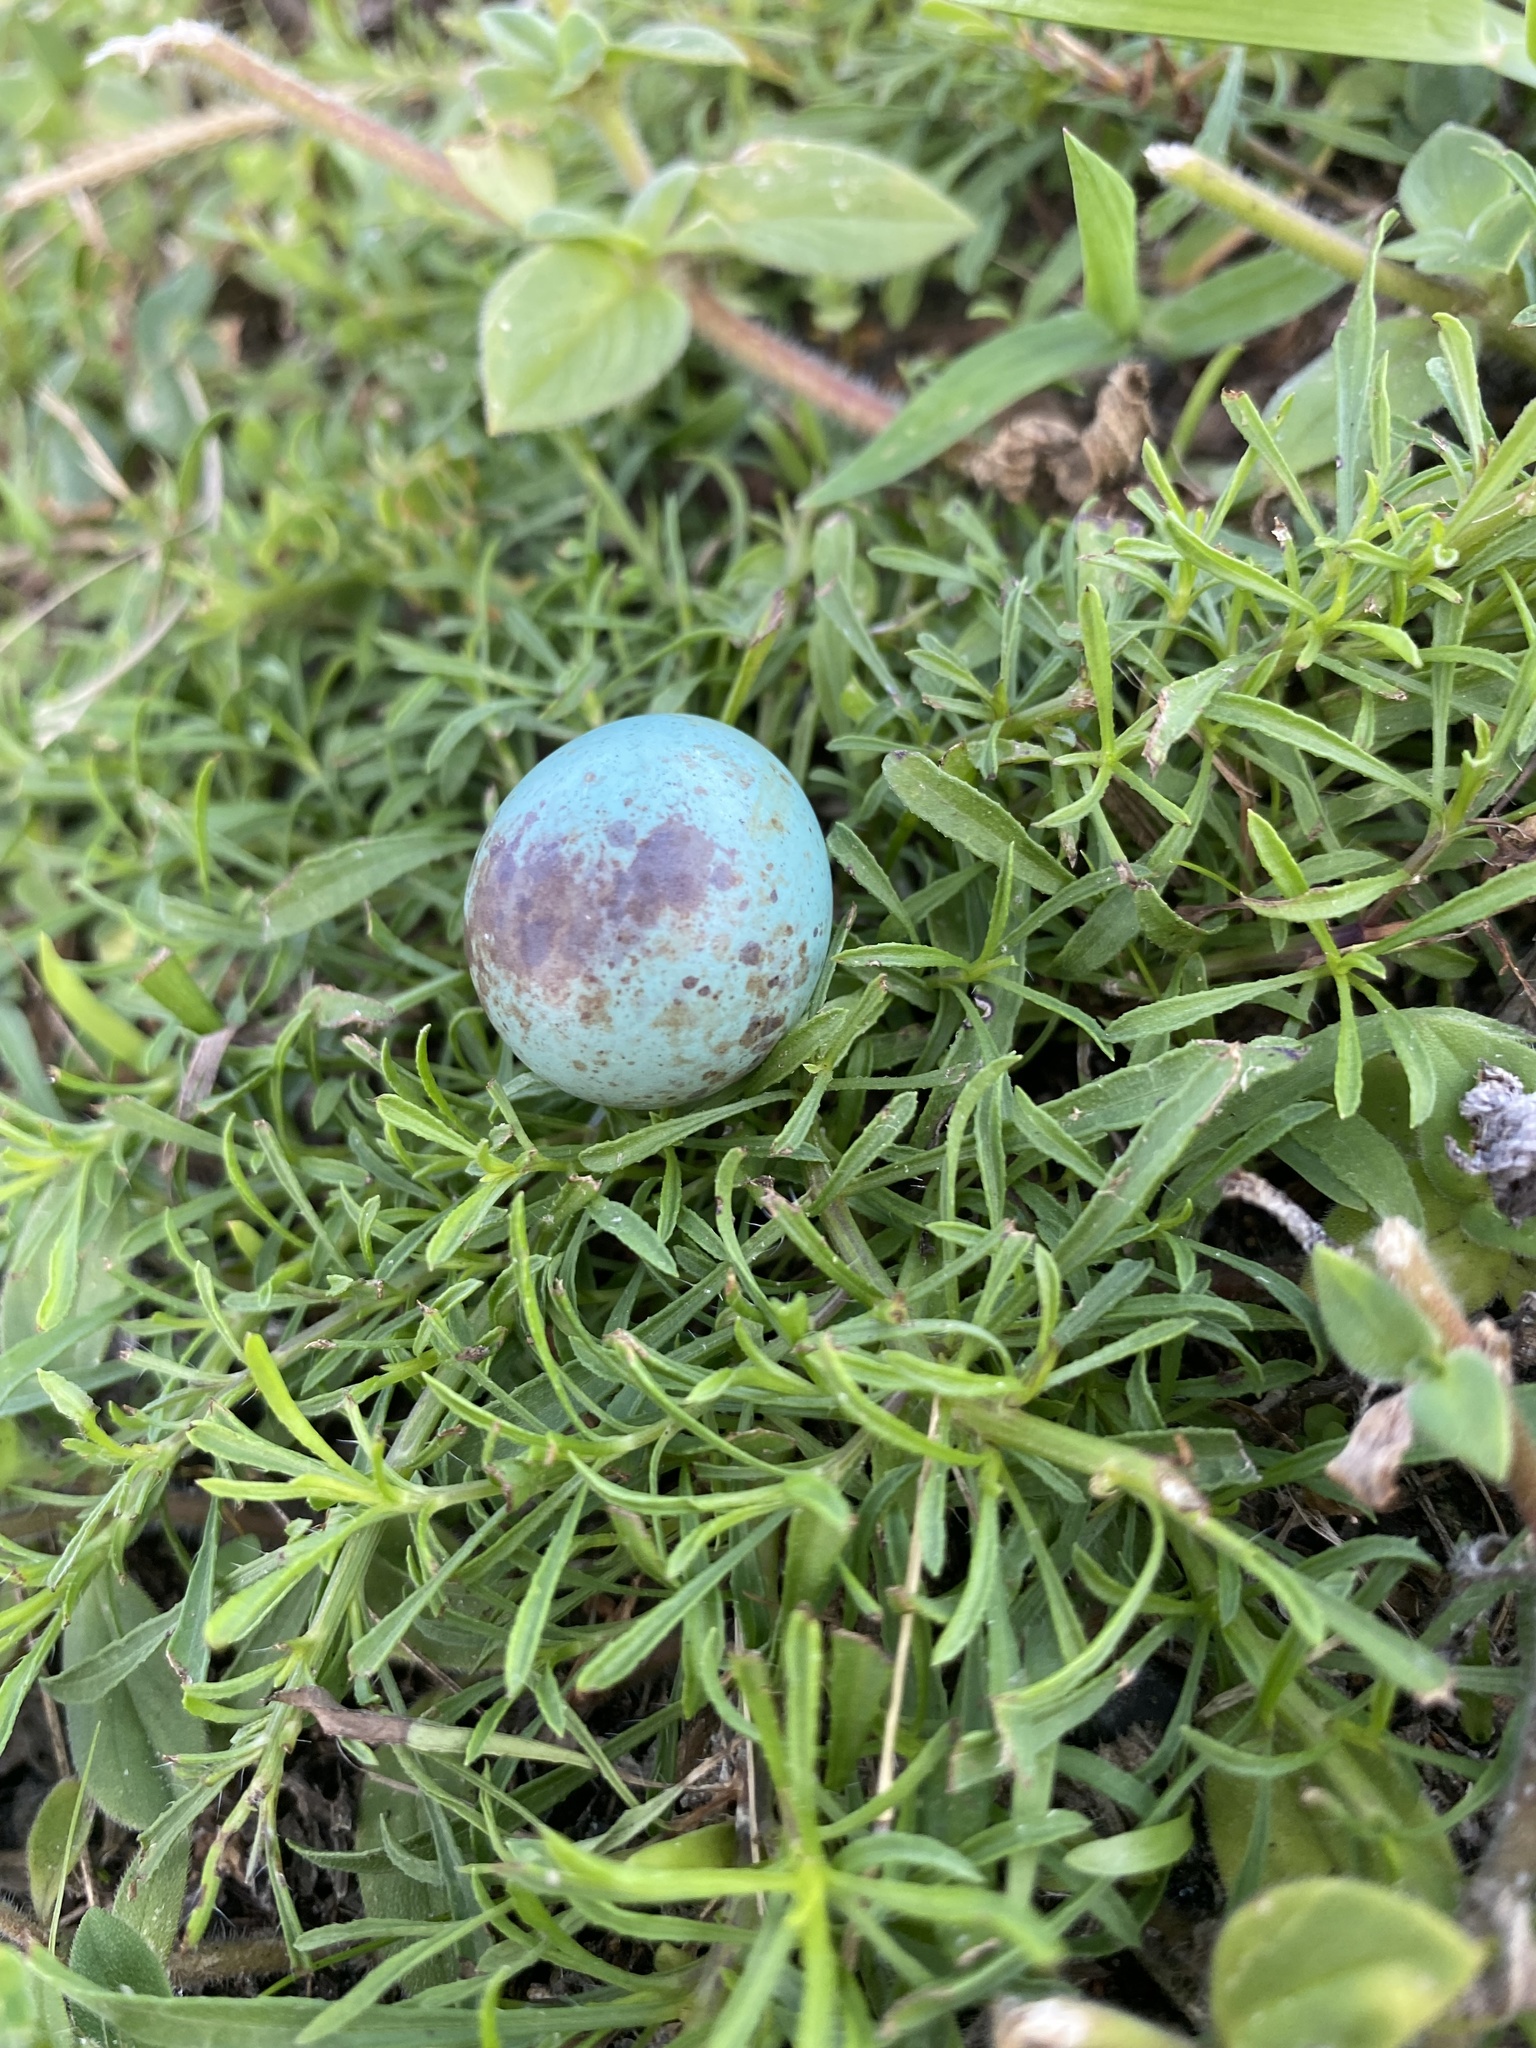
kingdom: Animalia
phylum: Chordata
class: Aves
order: Passeriformes
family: Mimidae
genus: Mimus
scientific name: Mimus polyglottos
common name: Northern mockingbird
